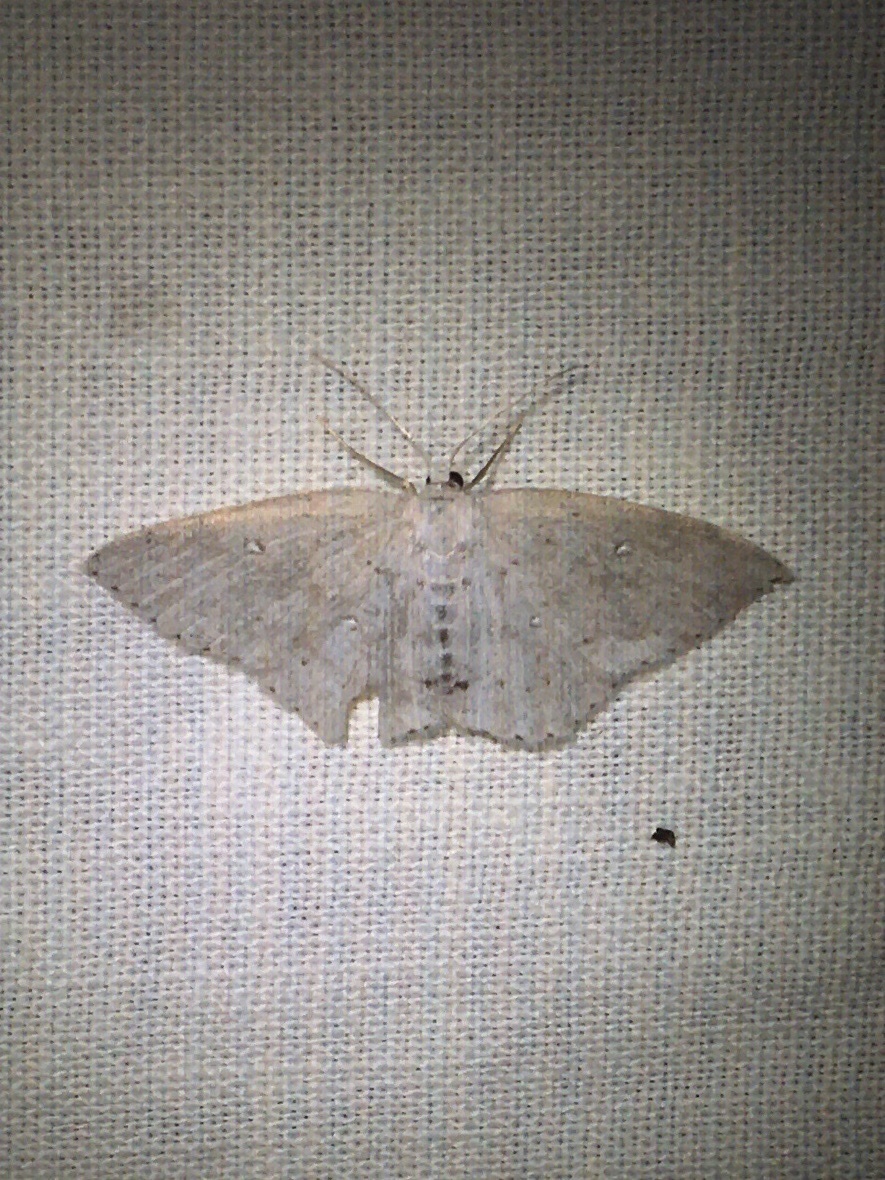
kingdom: Animalia
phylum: Arthropoda
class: Insecta
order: Lepidoptera
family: Geometridae
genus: Cyclophora
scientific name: Cyclophora pendulinaria
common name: Sweet fern geometer
